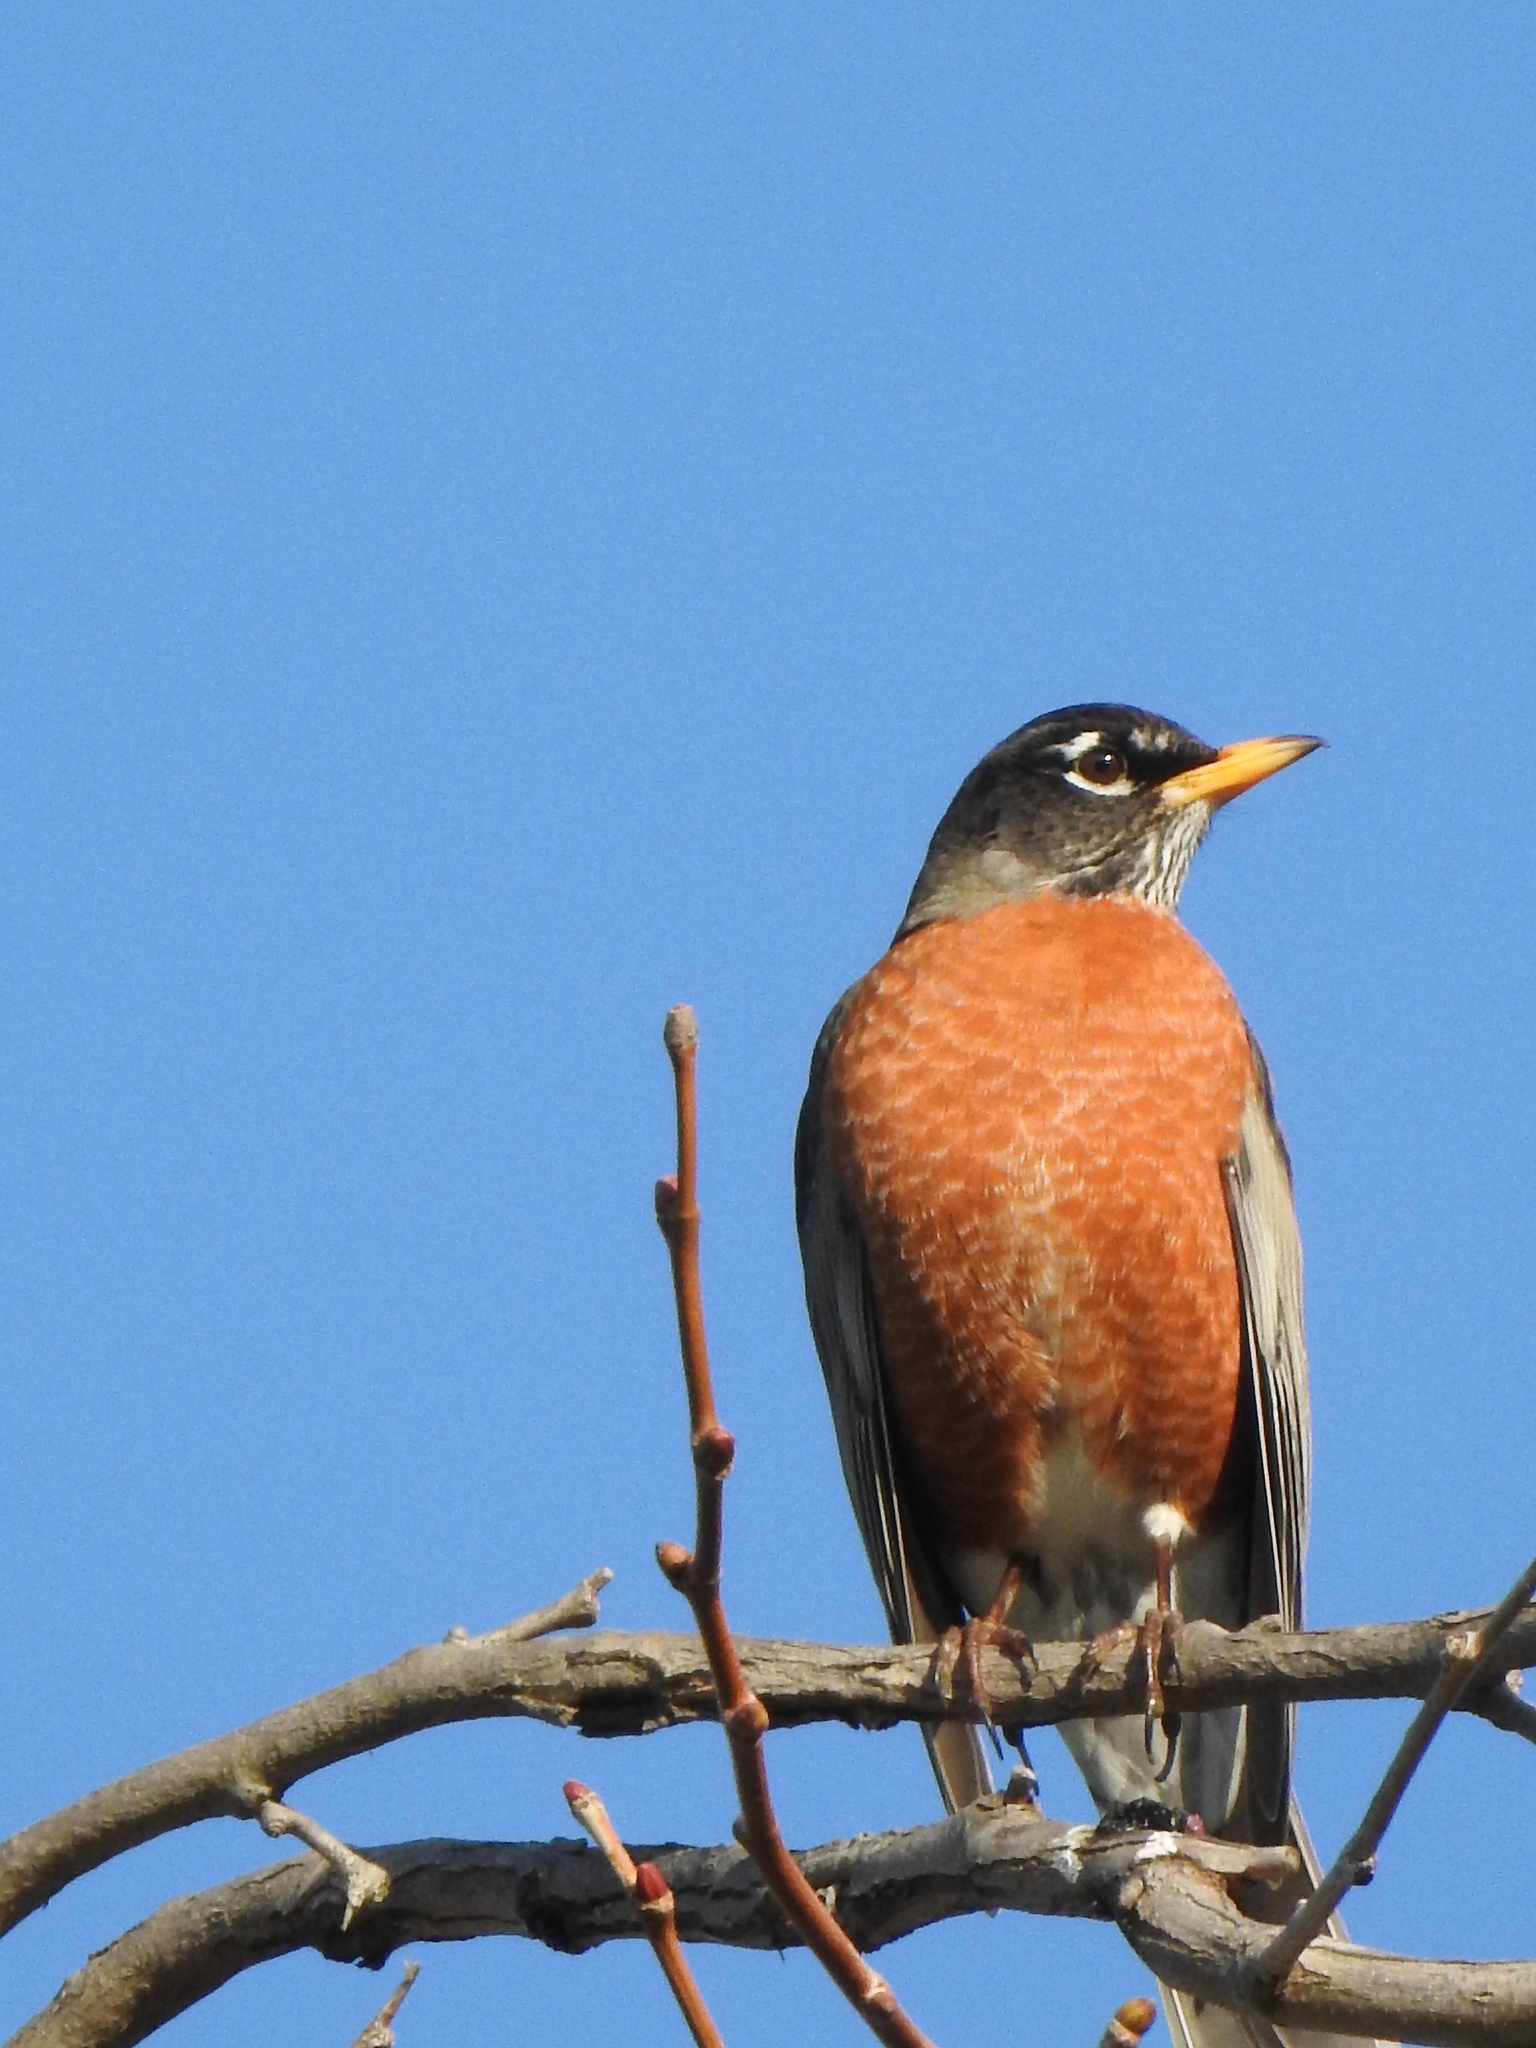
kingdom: Animalia
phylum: Chordata
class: Aves
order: Passeriformes
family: Turdidae
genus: Turdus
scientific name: Turdus migratorius
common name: American robin
